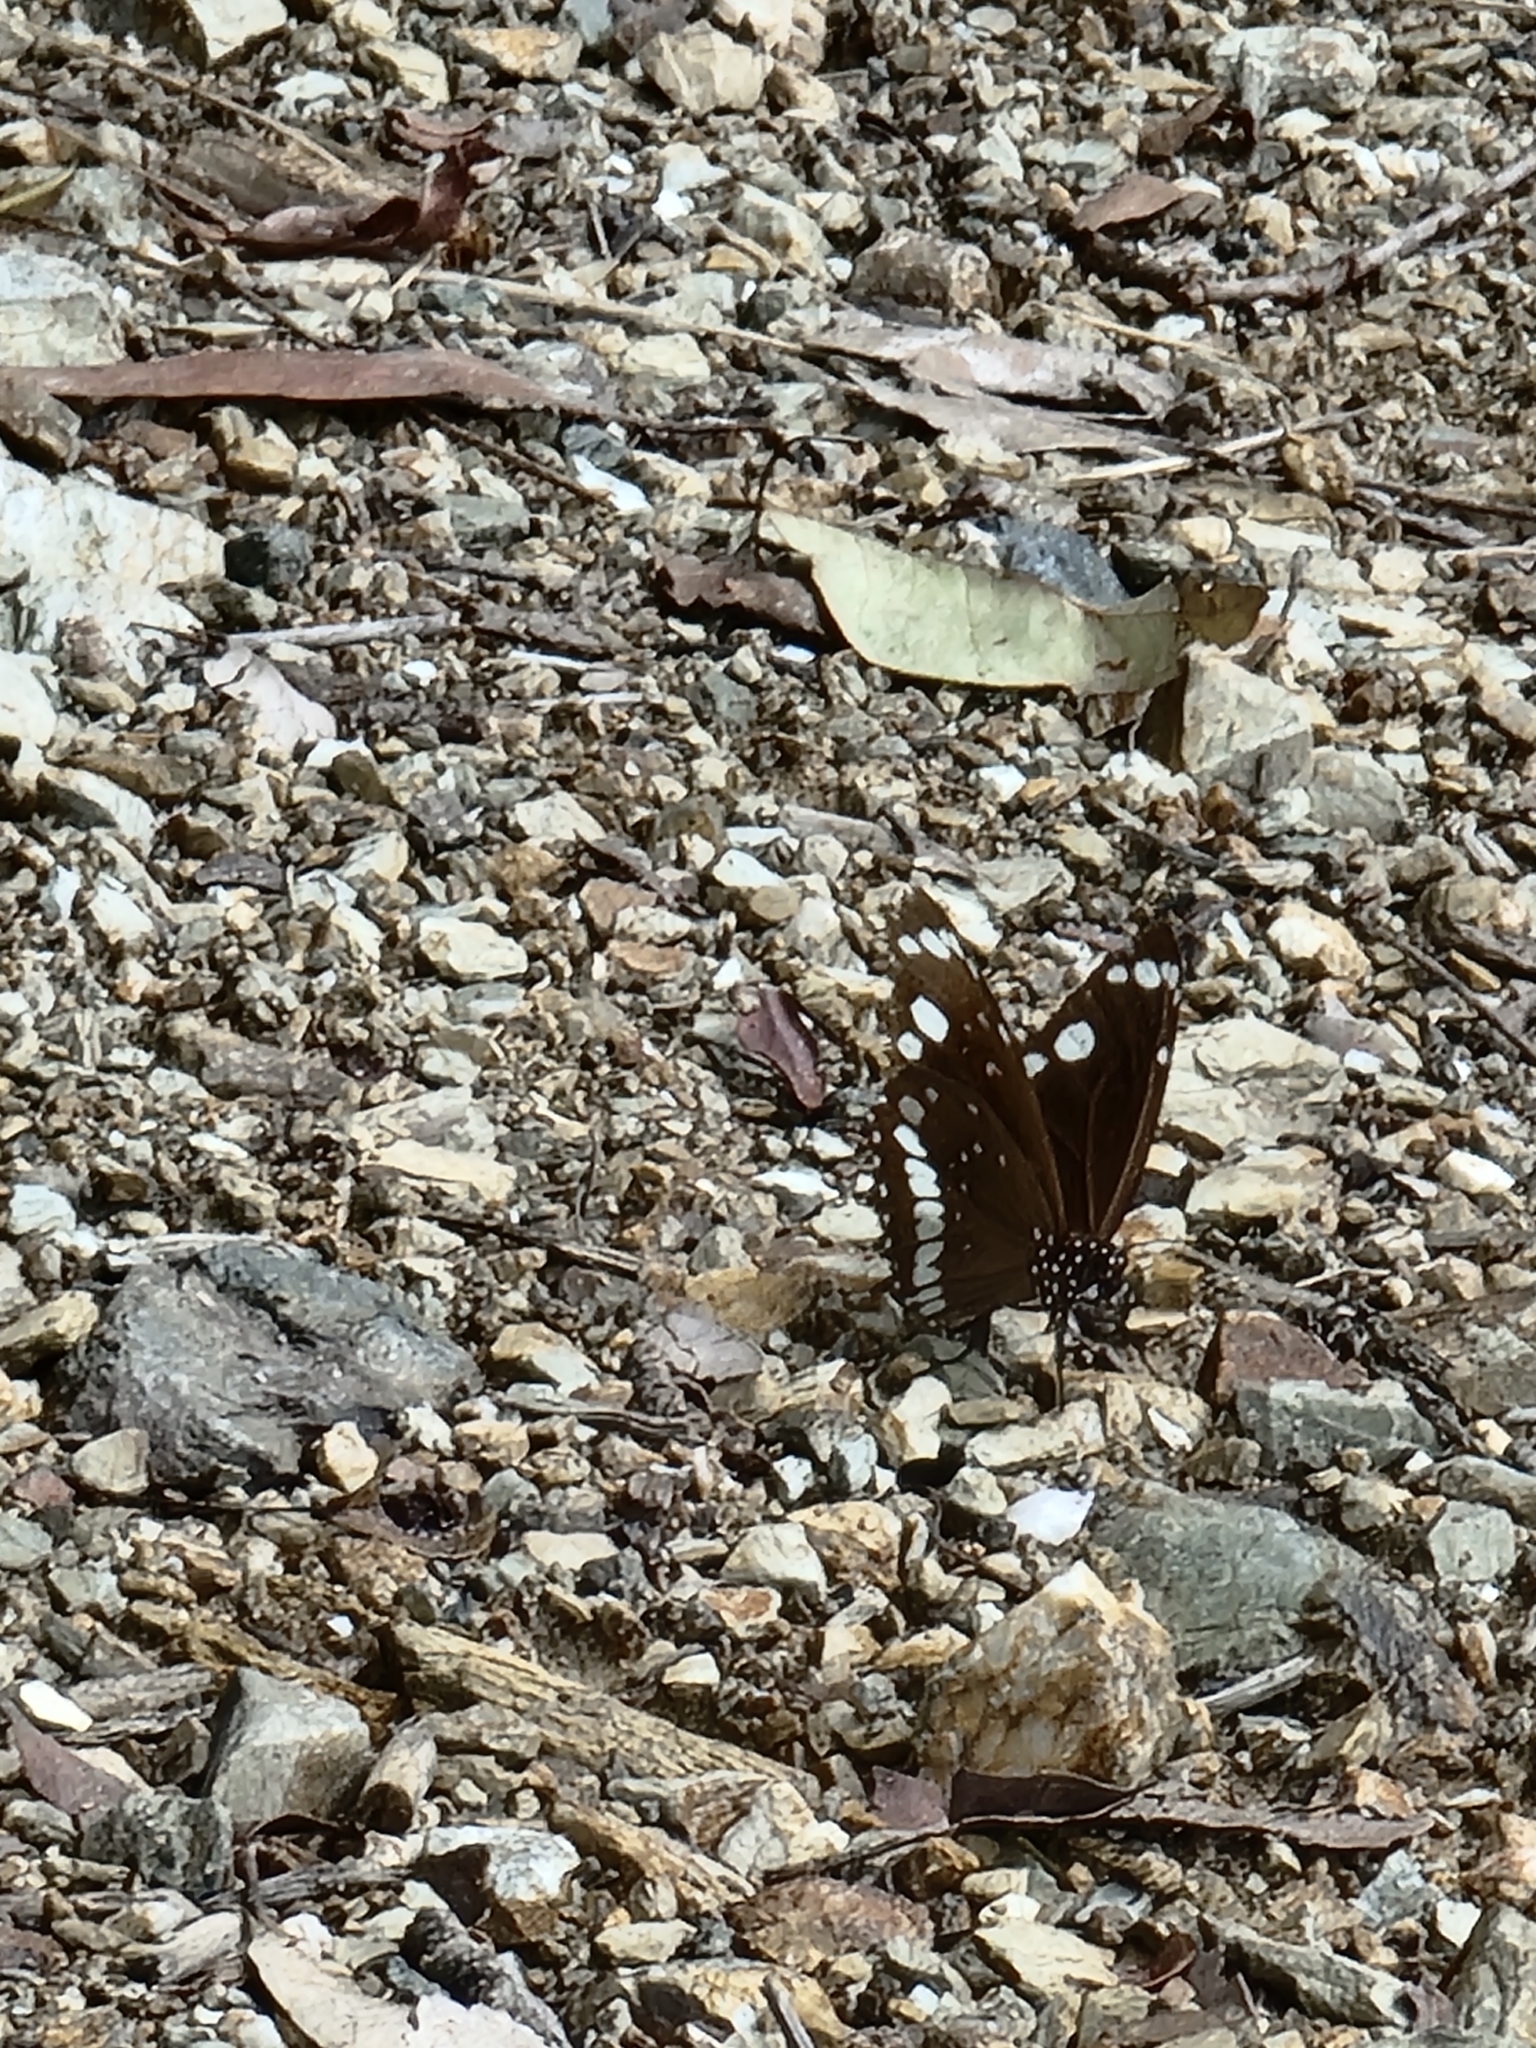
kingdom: Animalia
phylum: Arthropoda
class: Insecta
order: Lepidoptera
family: Nymphalidae
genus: Euploea
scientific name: Euploea core
